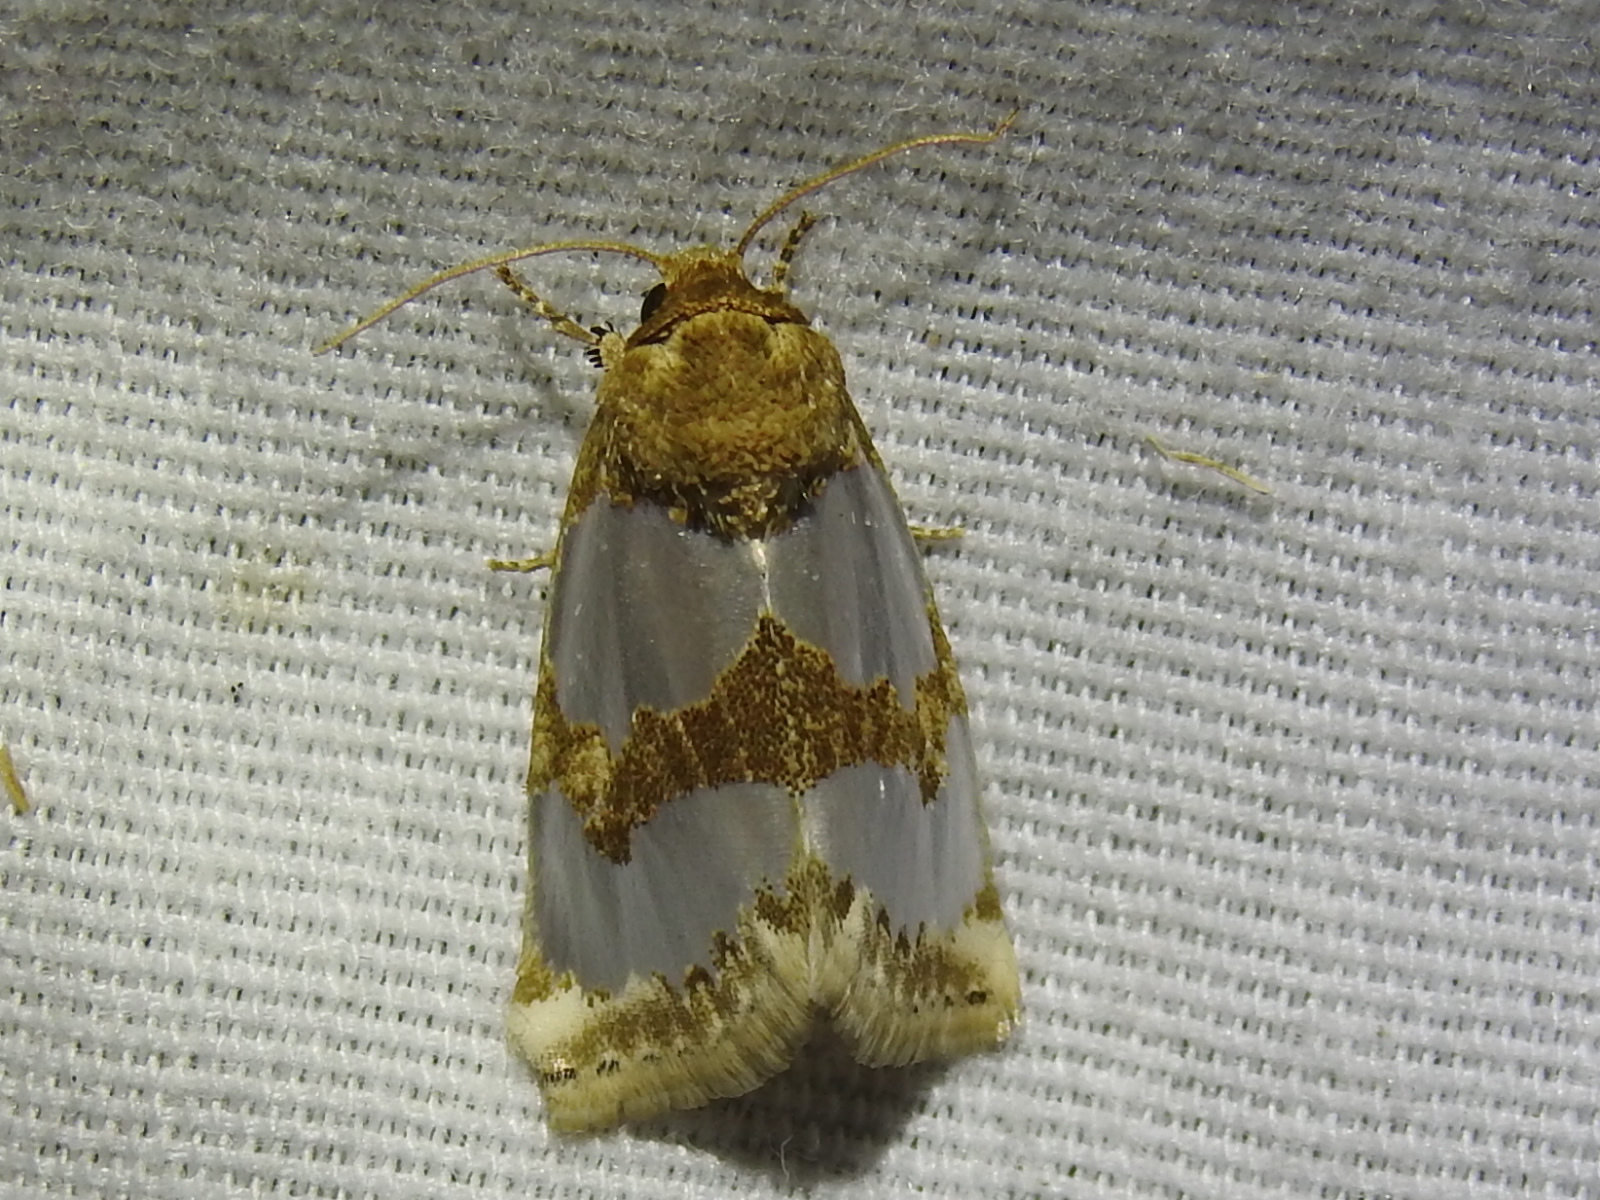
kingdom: Animalia
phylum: Arthropoda
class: Insecta
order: Lepidoptera
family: Noctuidae
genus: Schinia
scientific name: Schinia chrysellus
